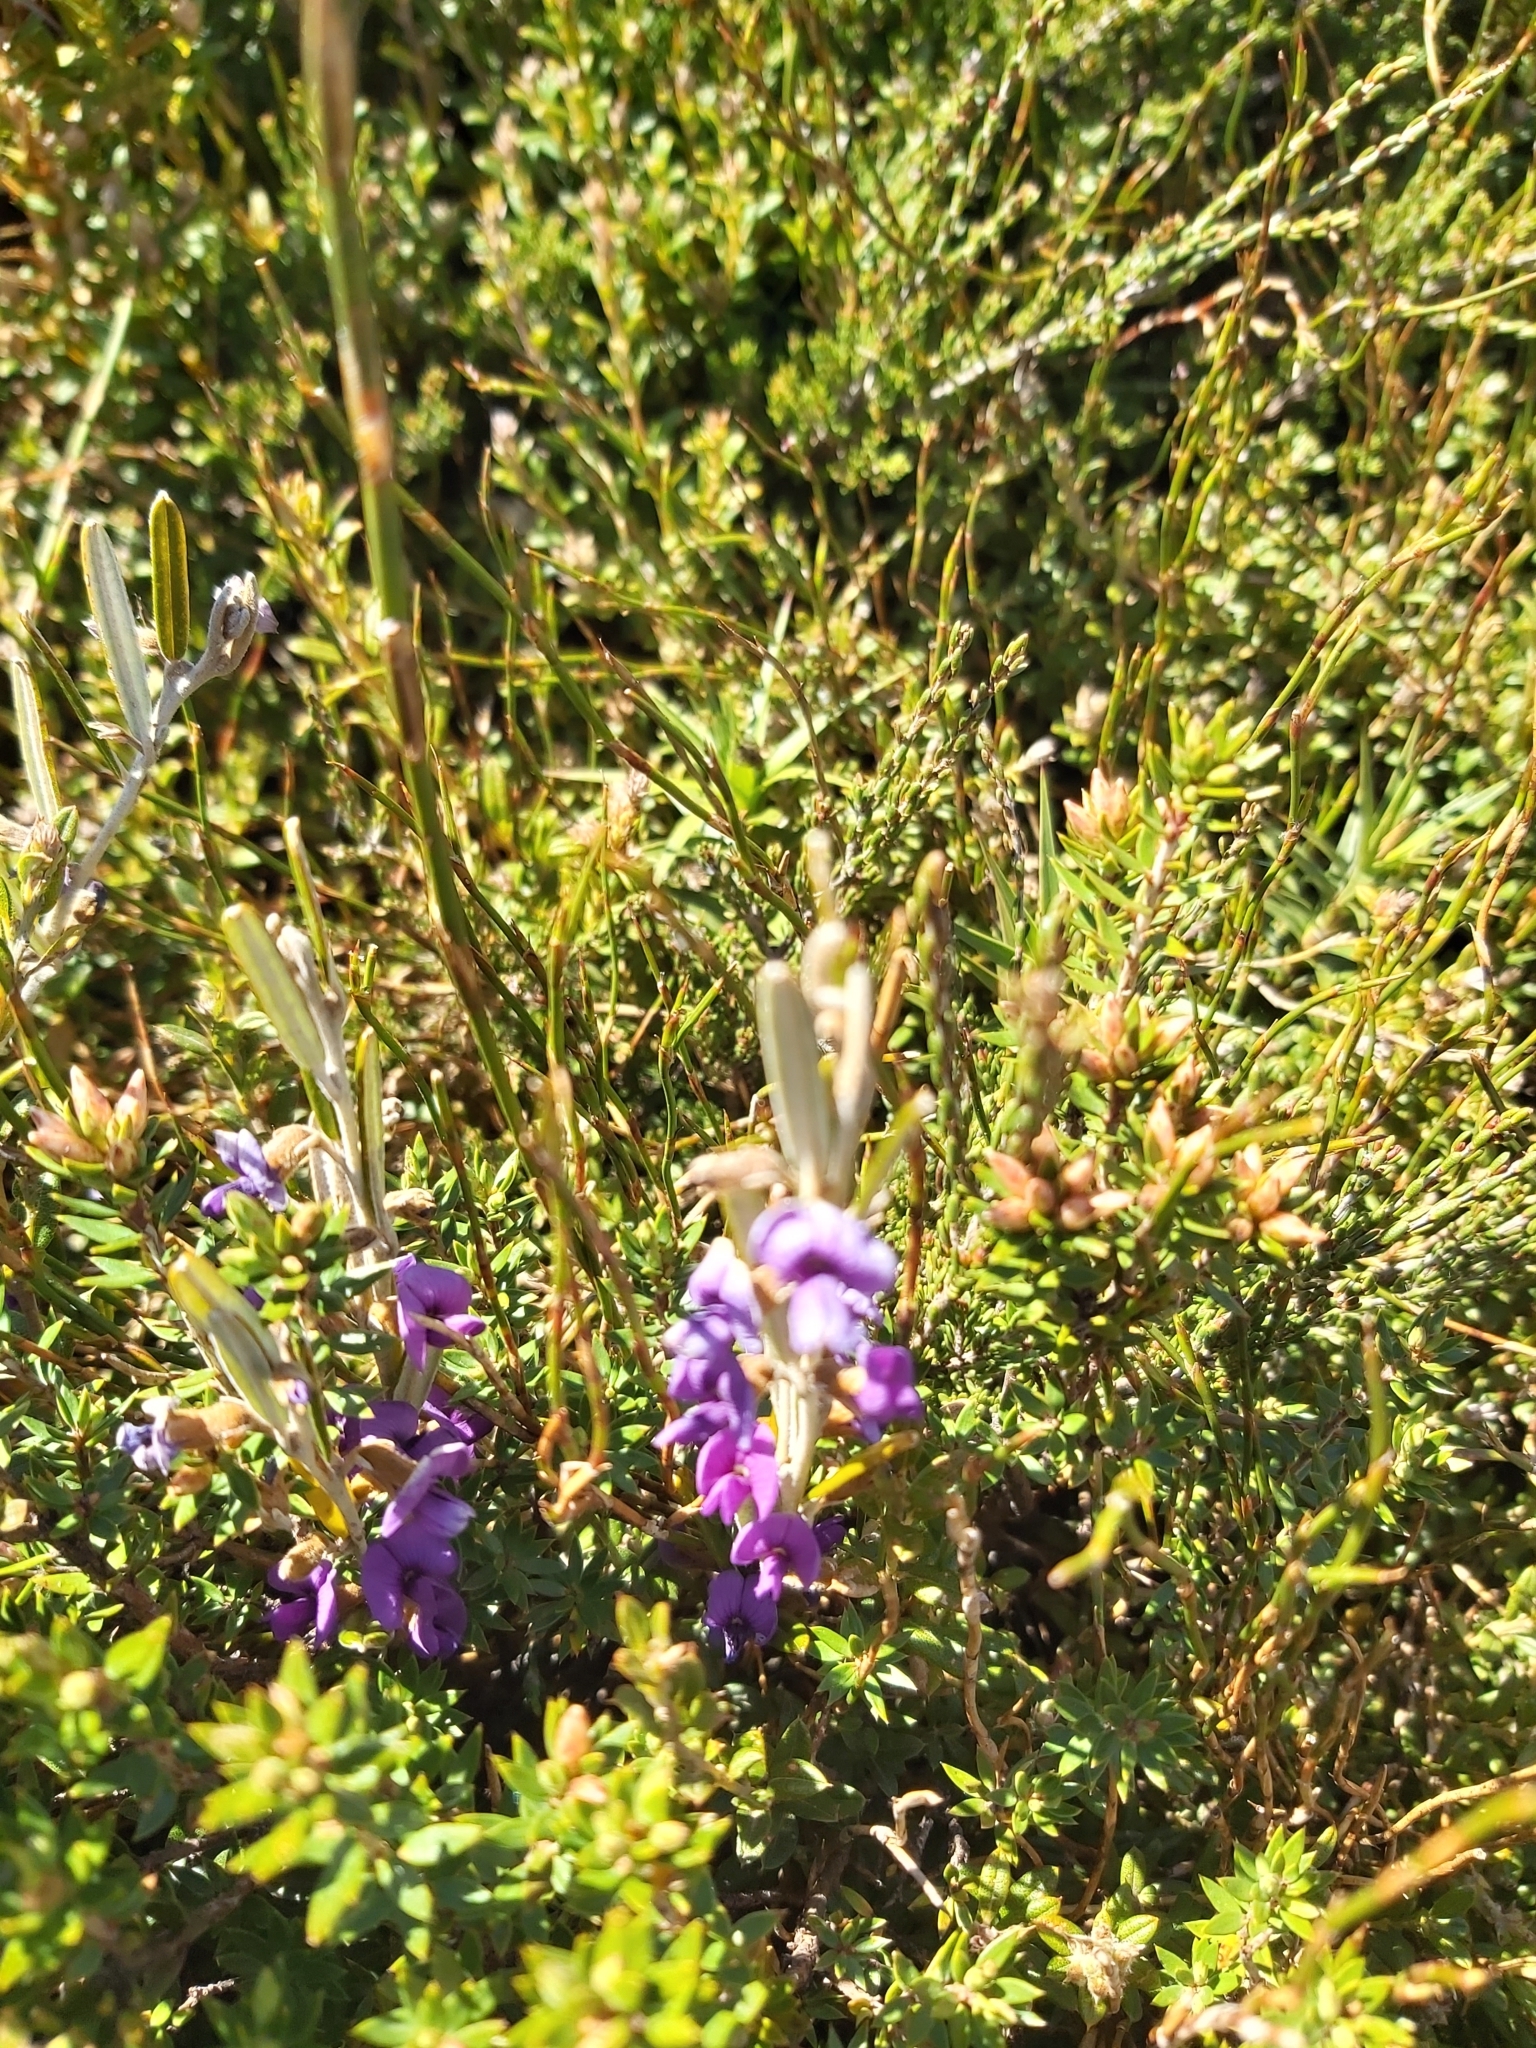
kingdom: Plantae
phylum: Tracheophyta
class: Magnoliopsida
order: Fabales
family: Fabaceae
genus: Hovea
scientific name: Hovea montana
